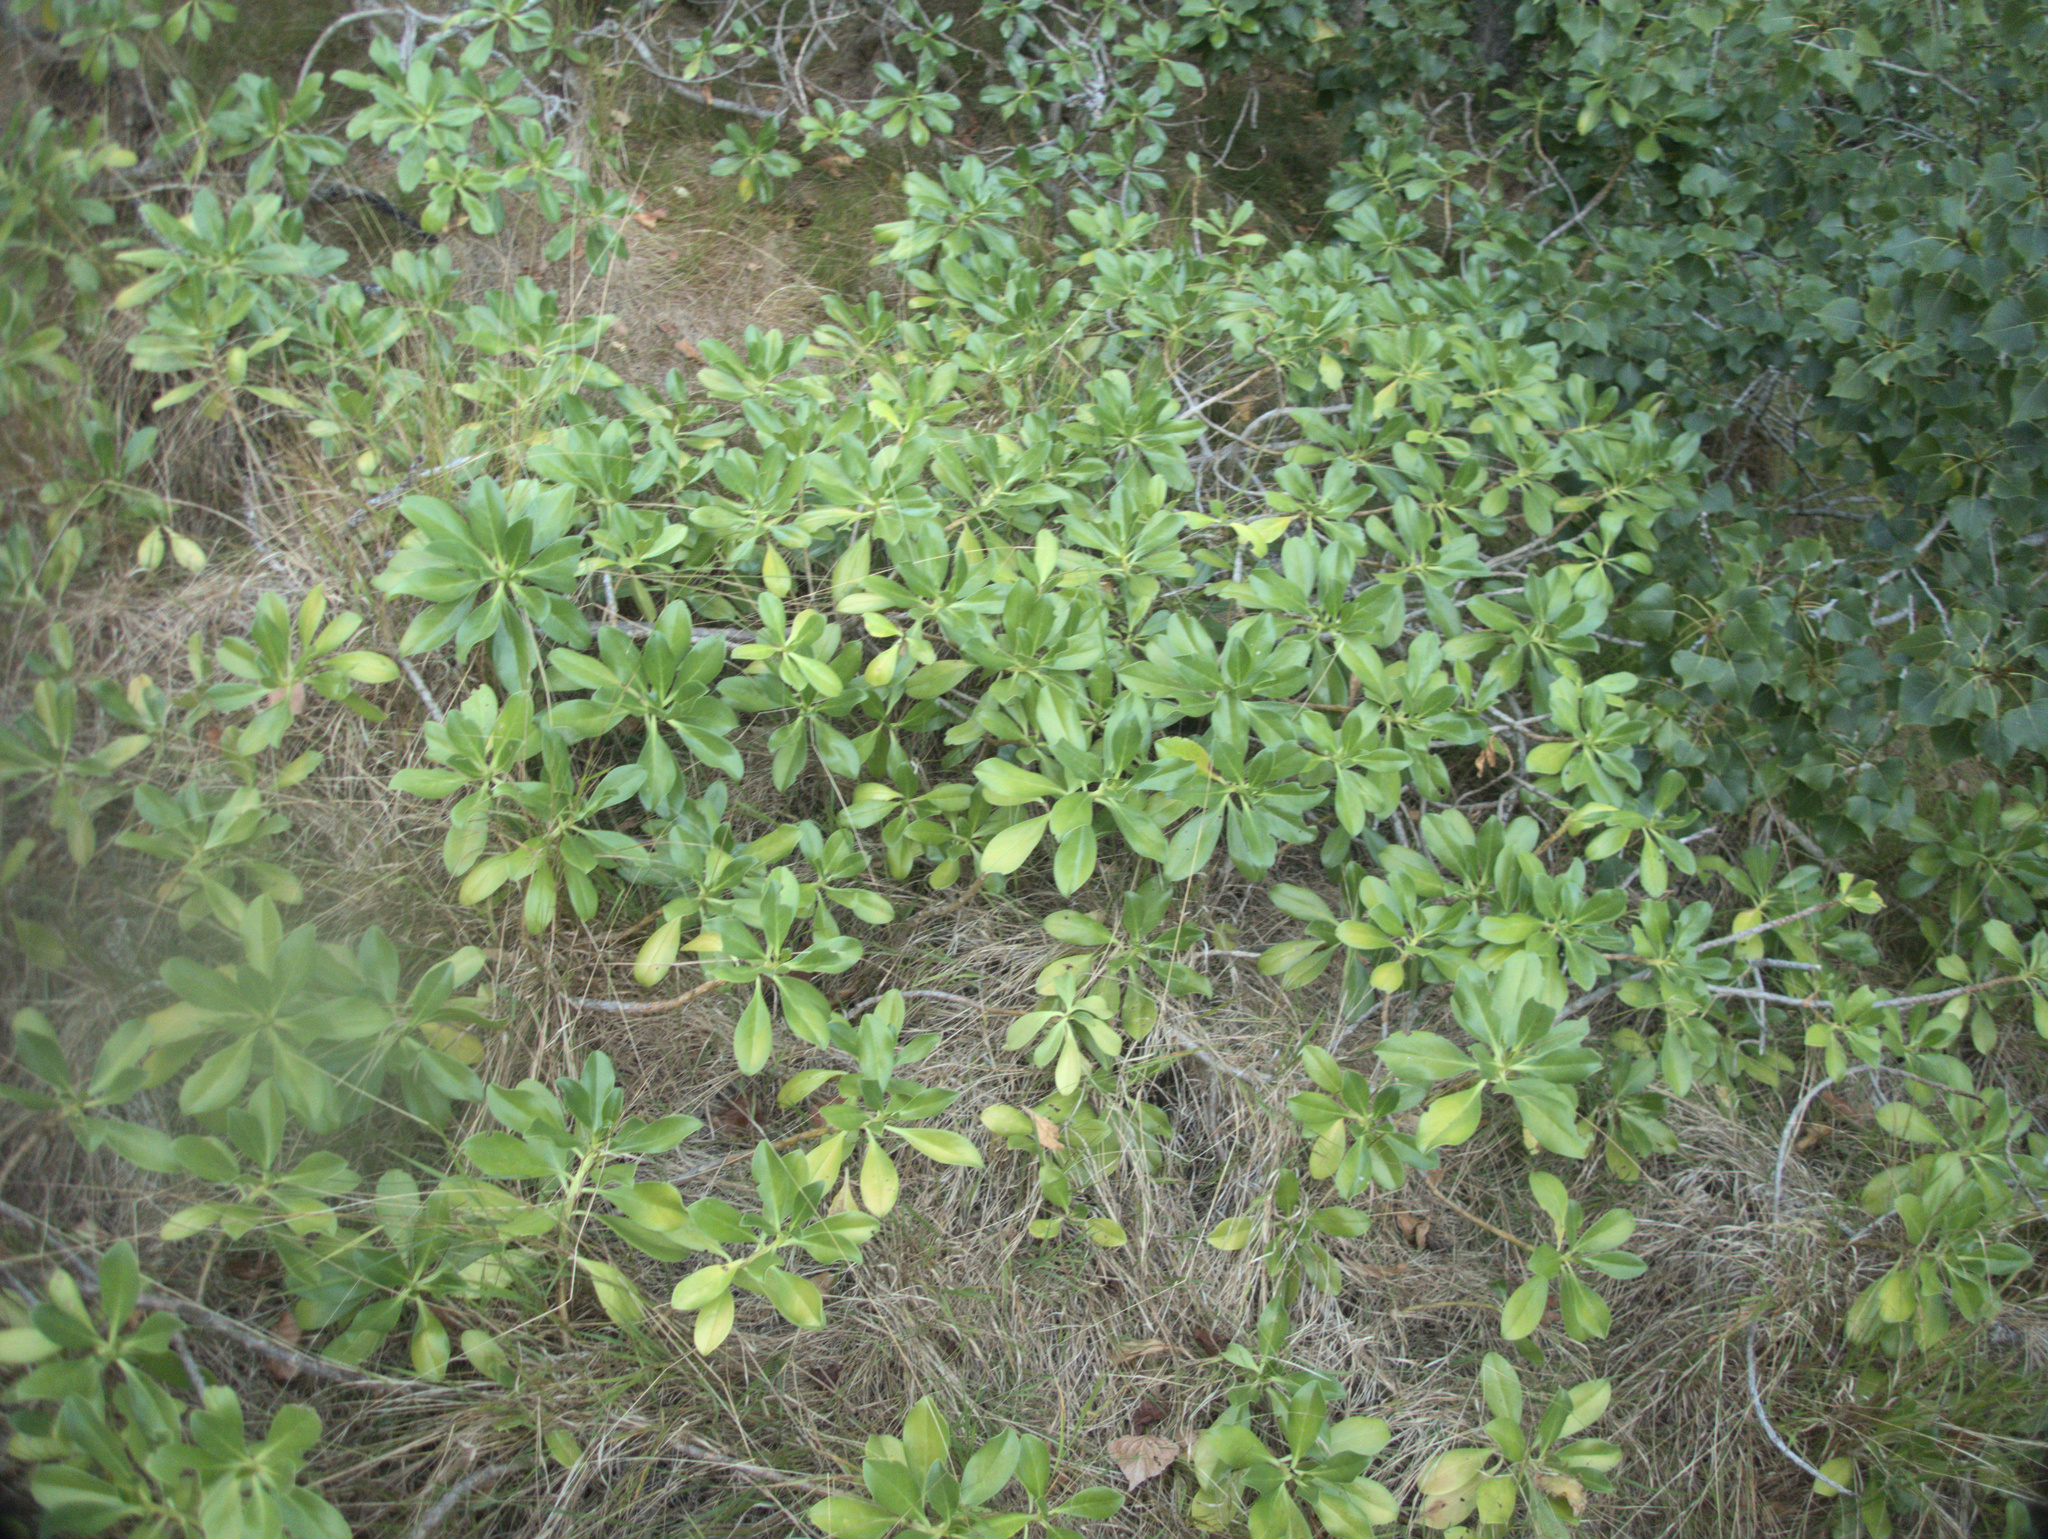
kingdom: Plantae
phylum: Tracheophyta
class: Magnoliopsida
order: Lamiales
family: Scrophulariaceae
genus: Myoporum
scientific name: Myoporum insulare
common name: Common boobialla
